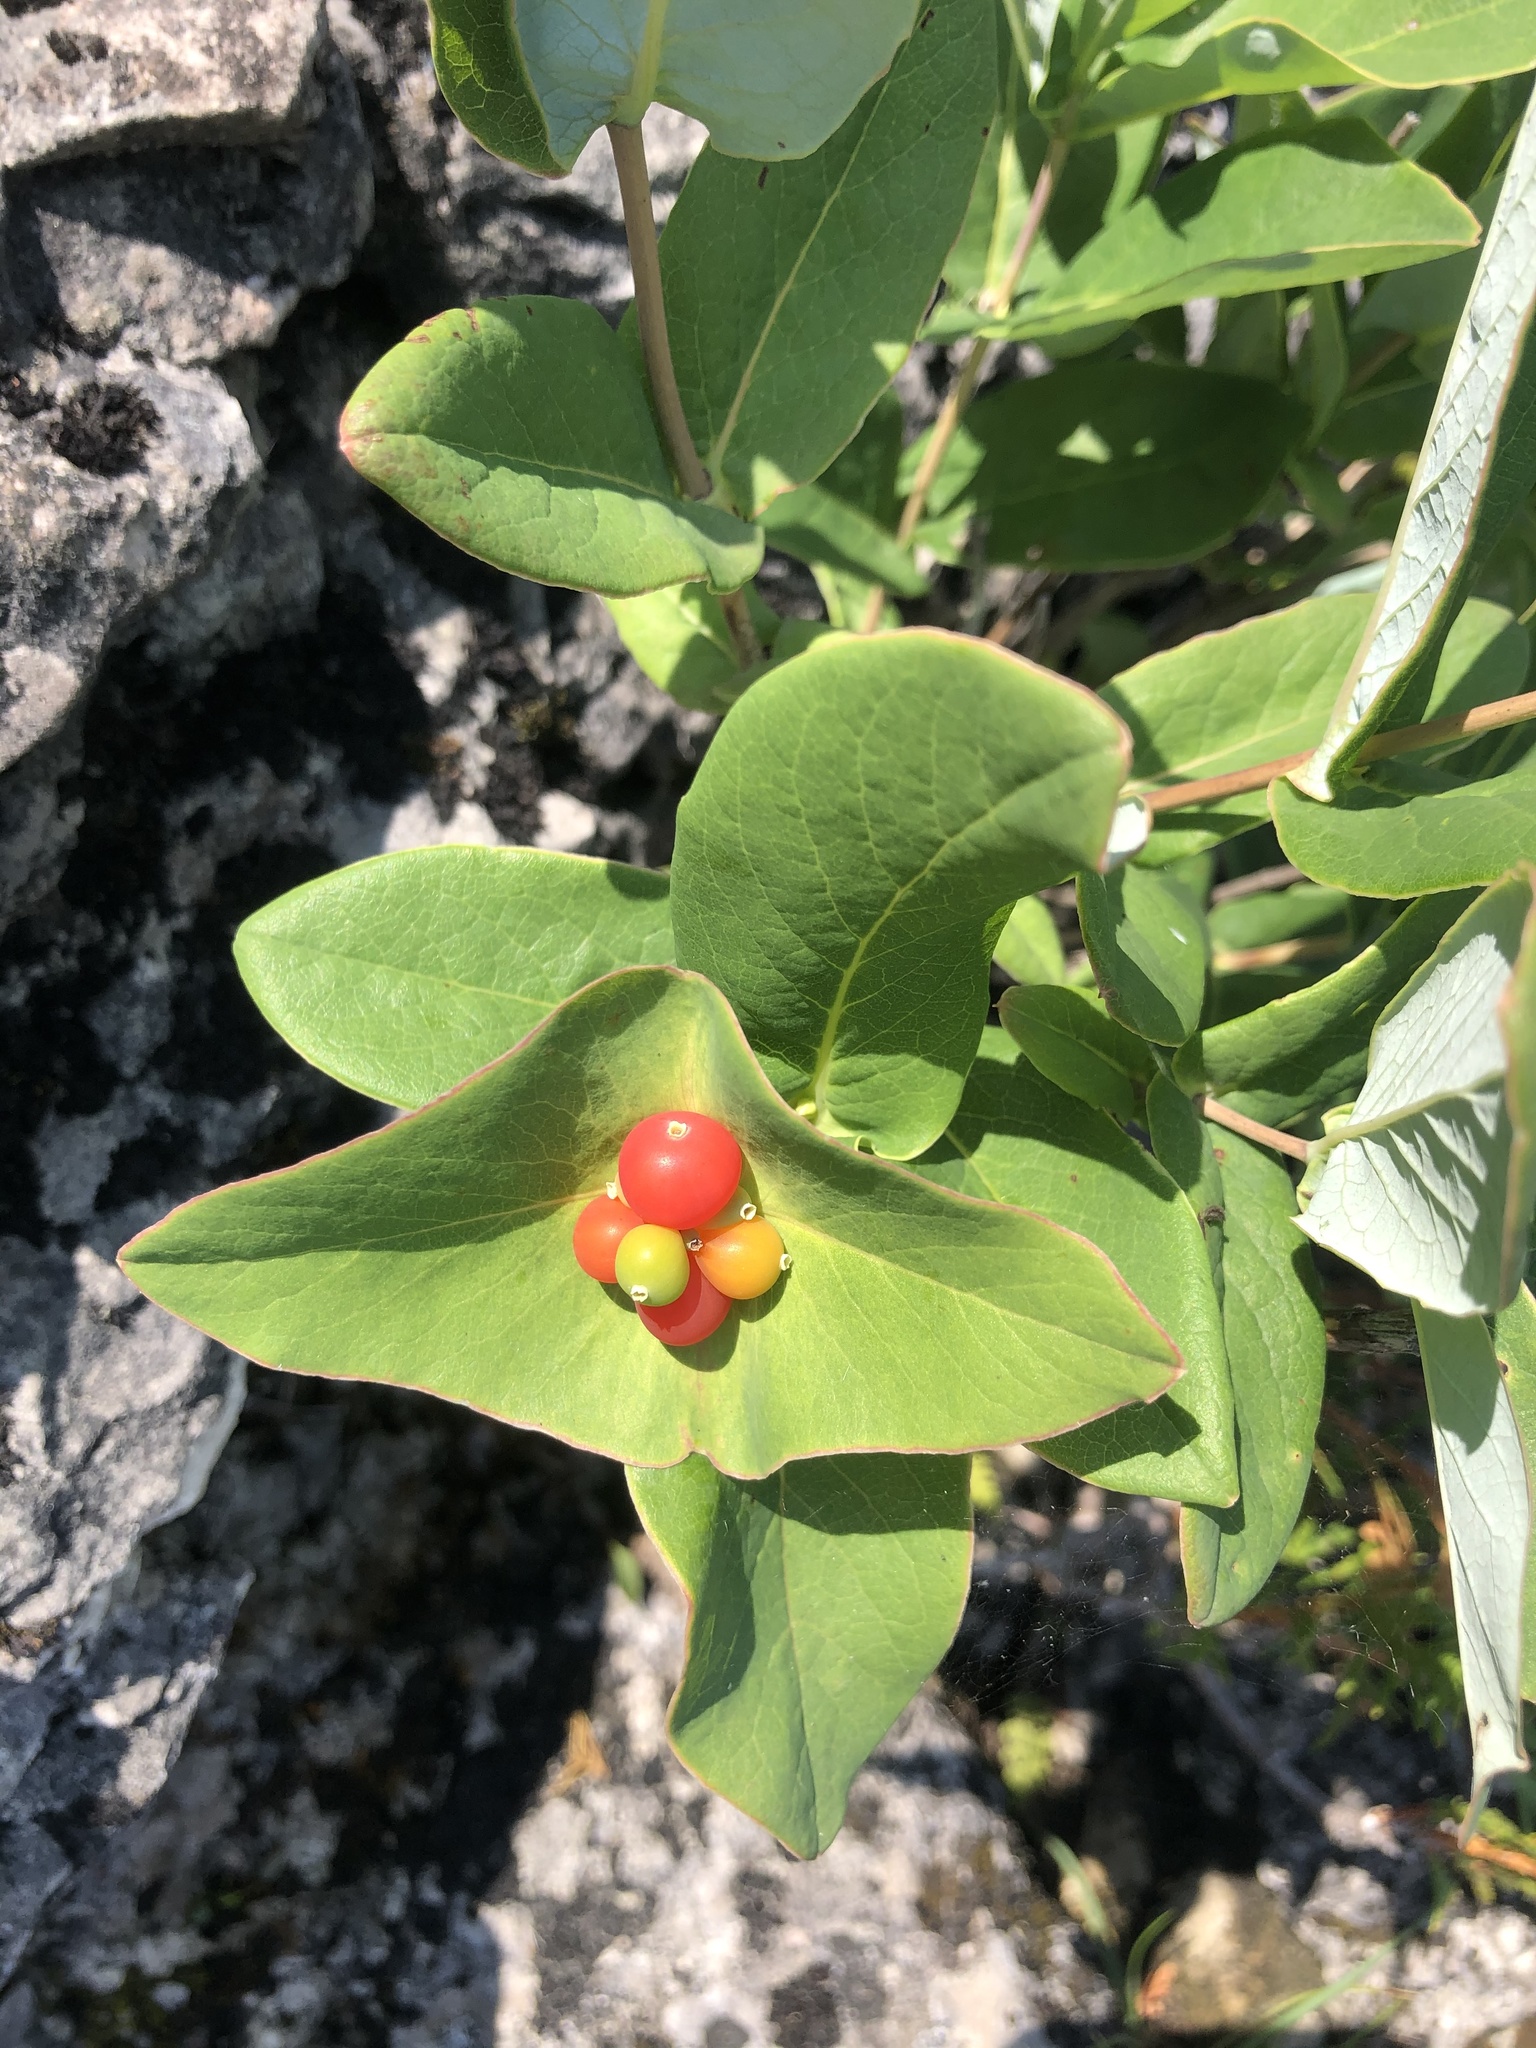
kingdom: Plantae
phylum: Tracheophyta
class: Magnoliopsida
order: Dipsacales
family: Caprifoliaceae
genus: Lonicera
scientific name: Lonicera dioica
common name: Limber honeysuckle
